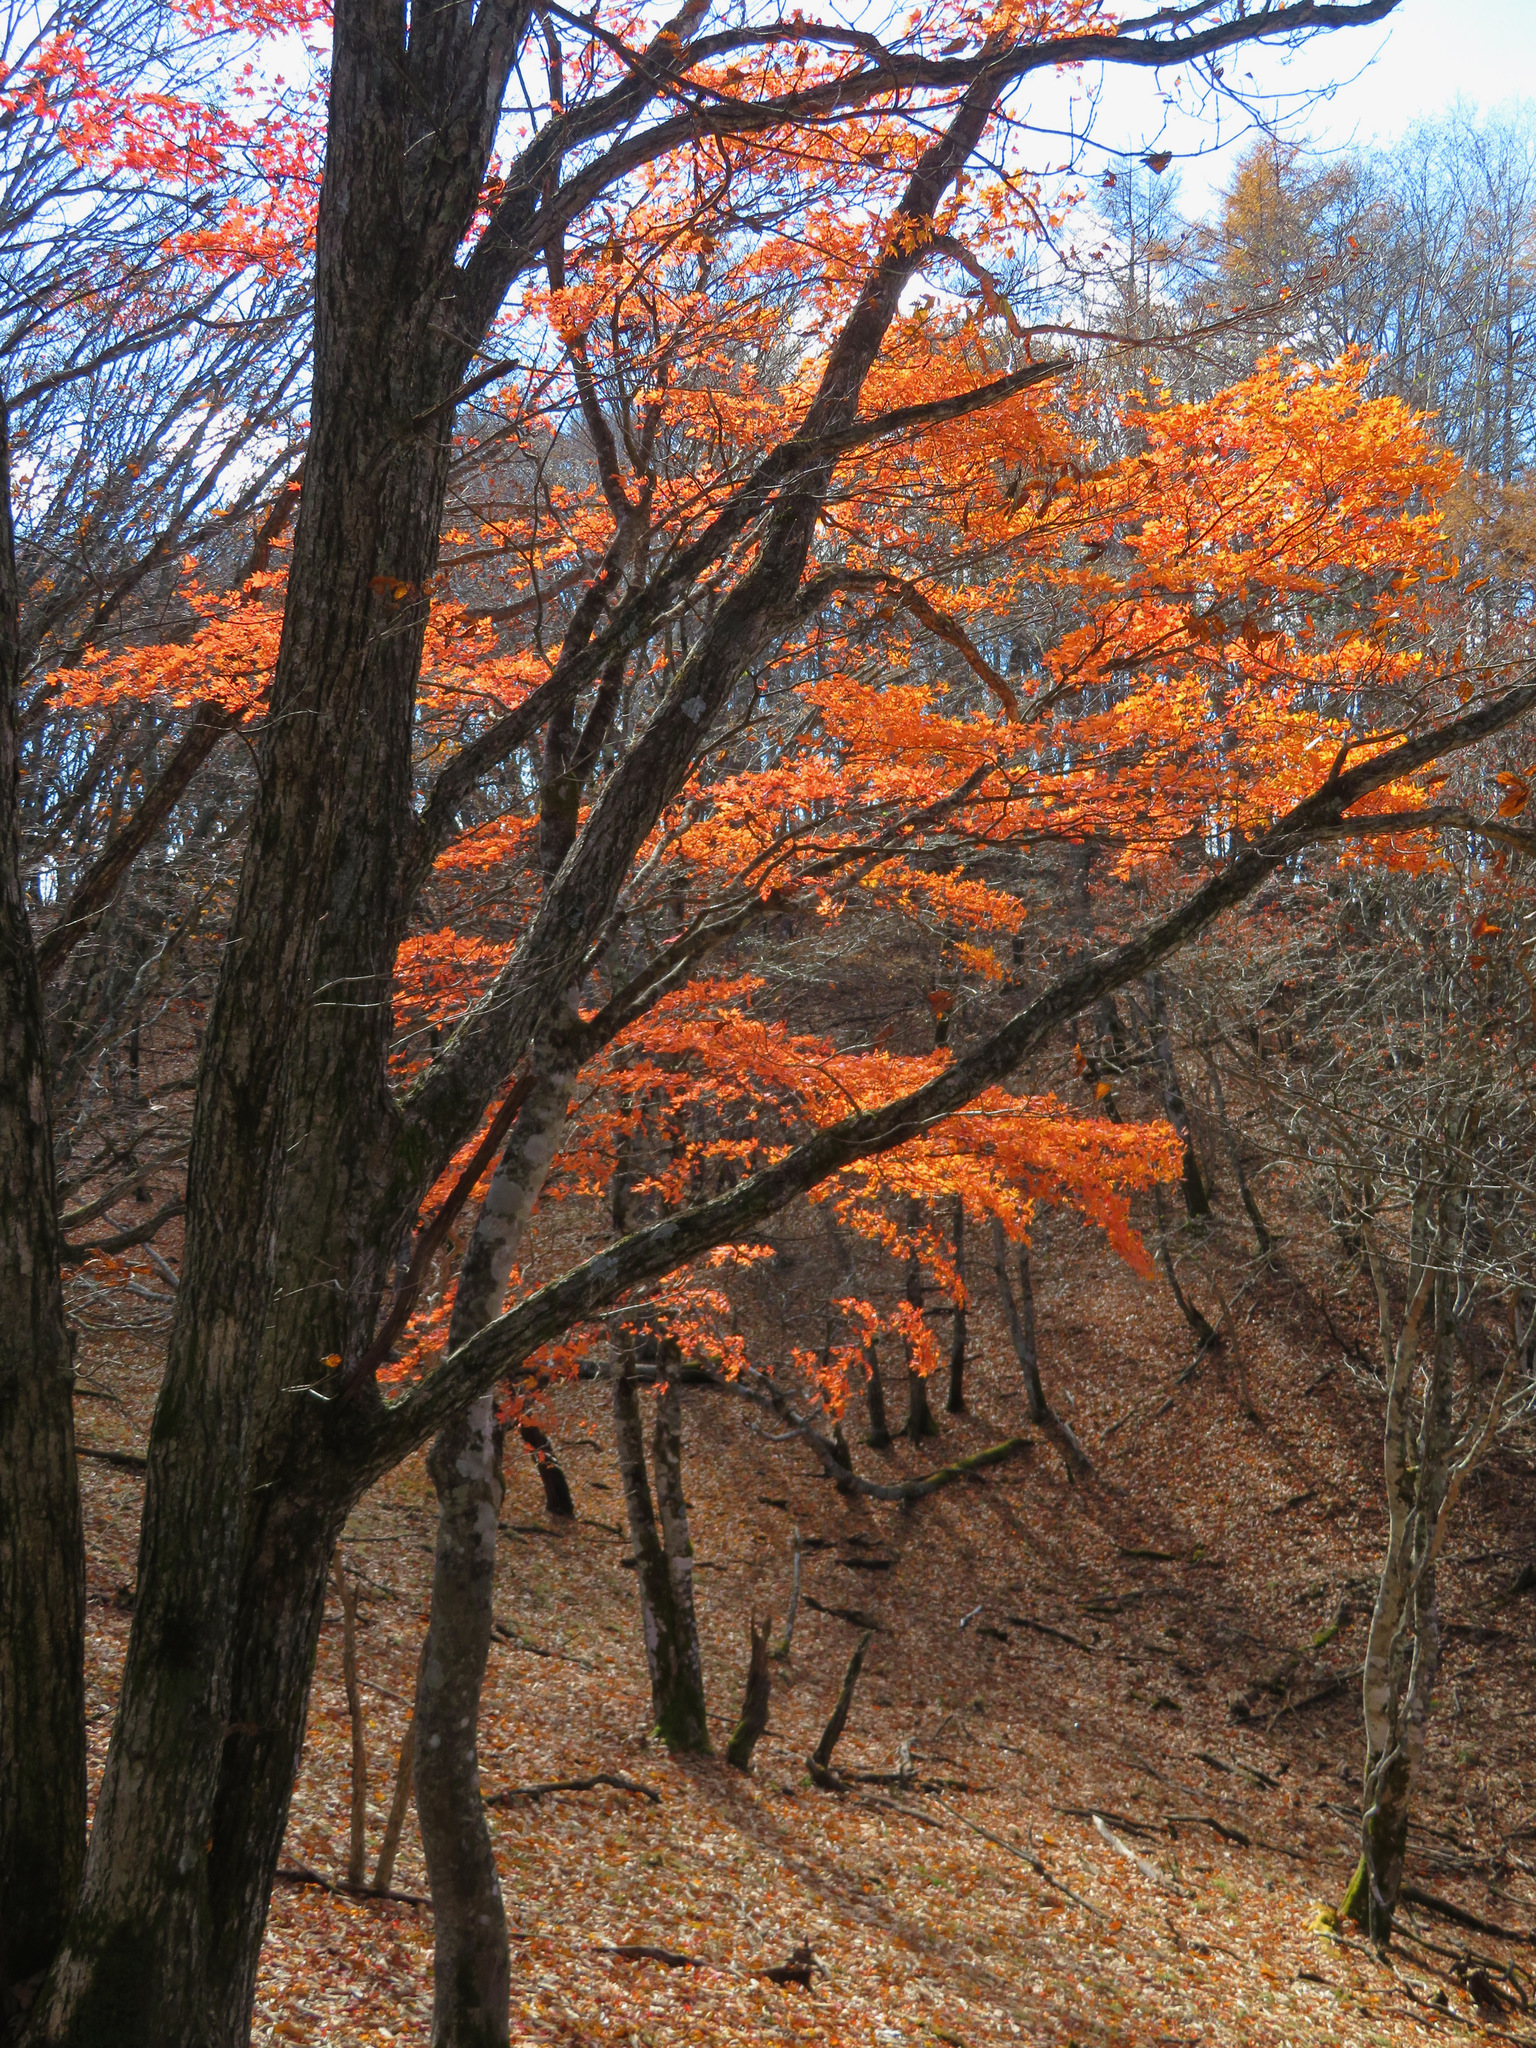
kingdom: Plantae
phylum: Tracheophyta
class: Magnoliopsida
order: Sapindales
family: Sapindaceae
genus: Acer
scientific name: Acer palmatum
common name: Japanese maple
